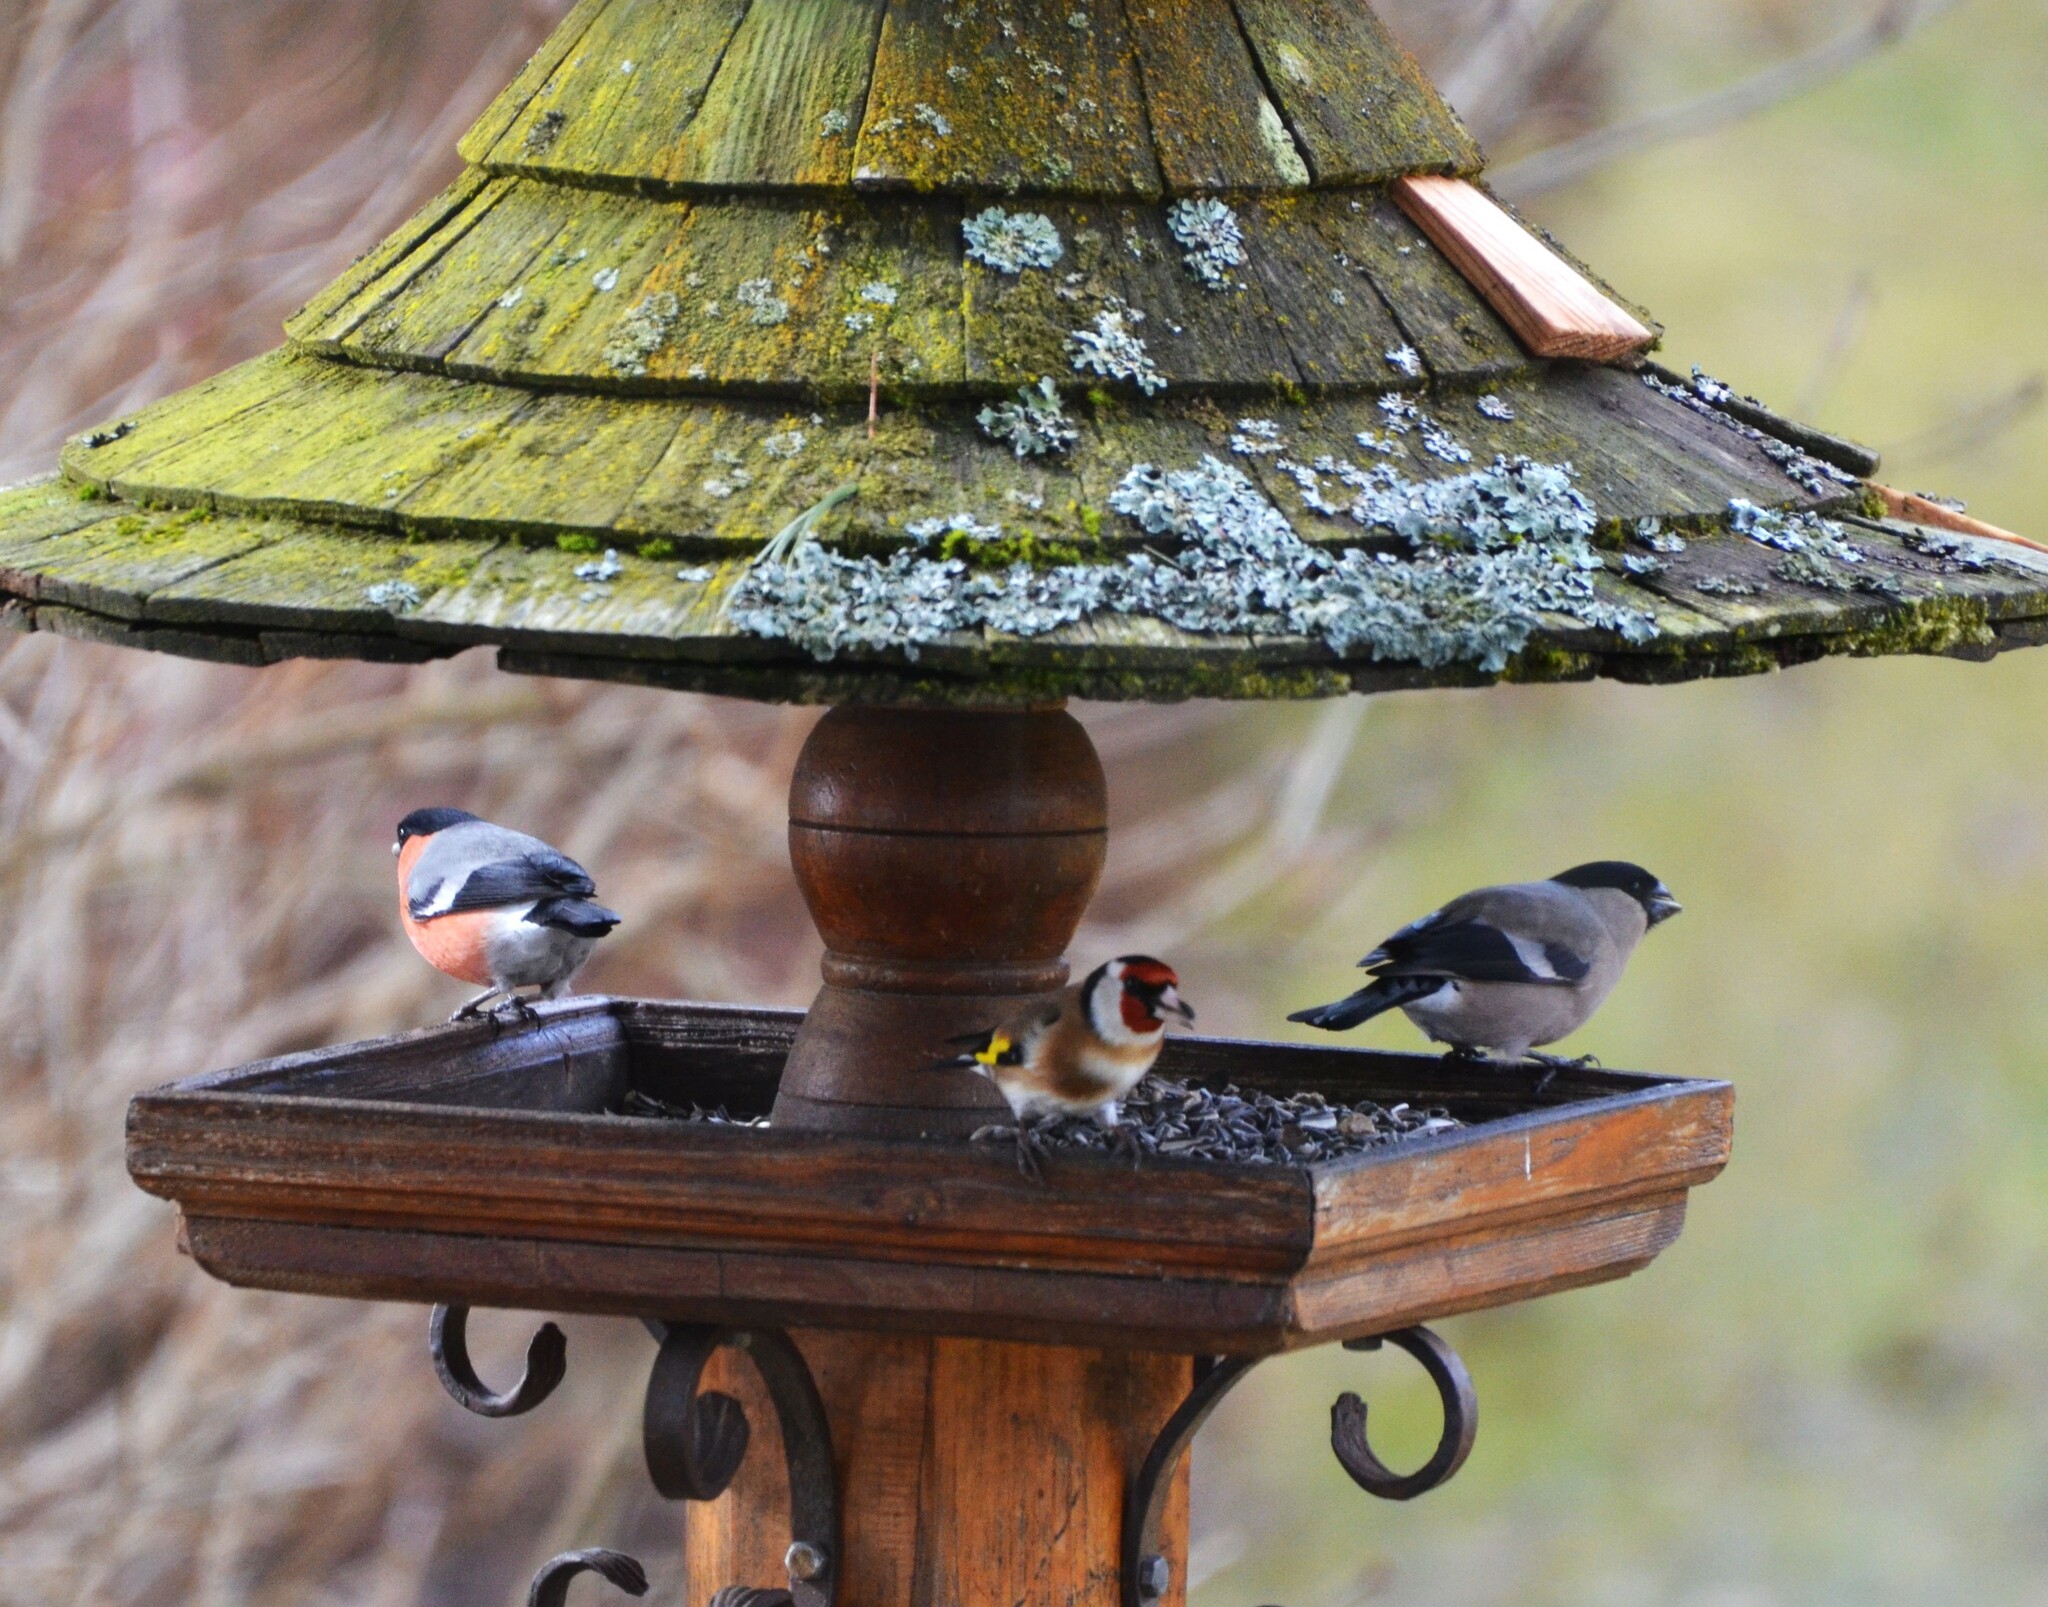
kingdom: Animalia
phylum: Chordata
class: Aves
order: Passeriformes
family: Fringillidae
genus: Pyrrhula
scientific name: Pyrrhula pyrrhula
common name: Eurasian bullfinch
